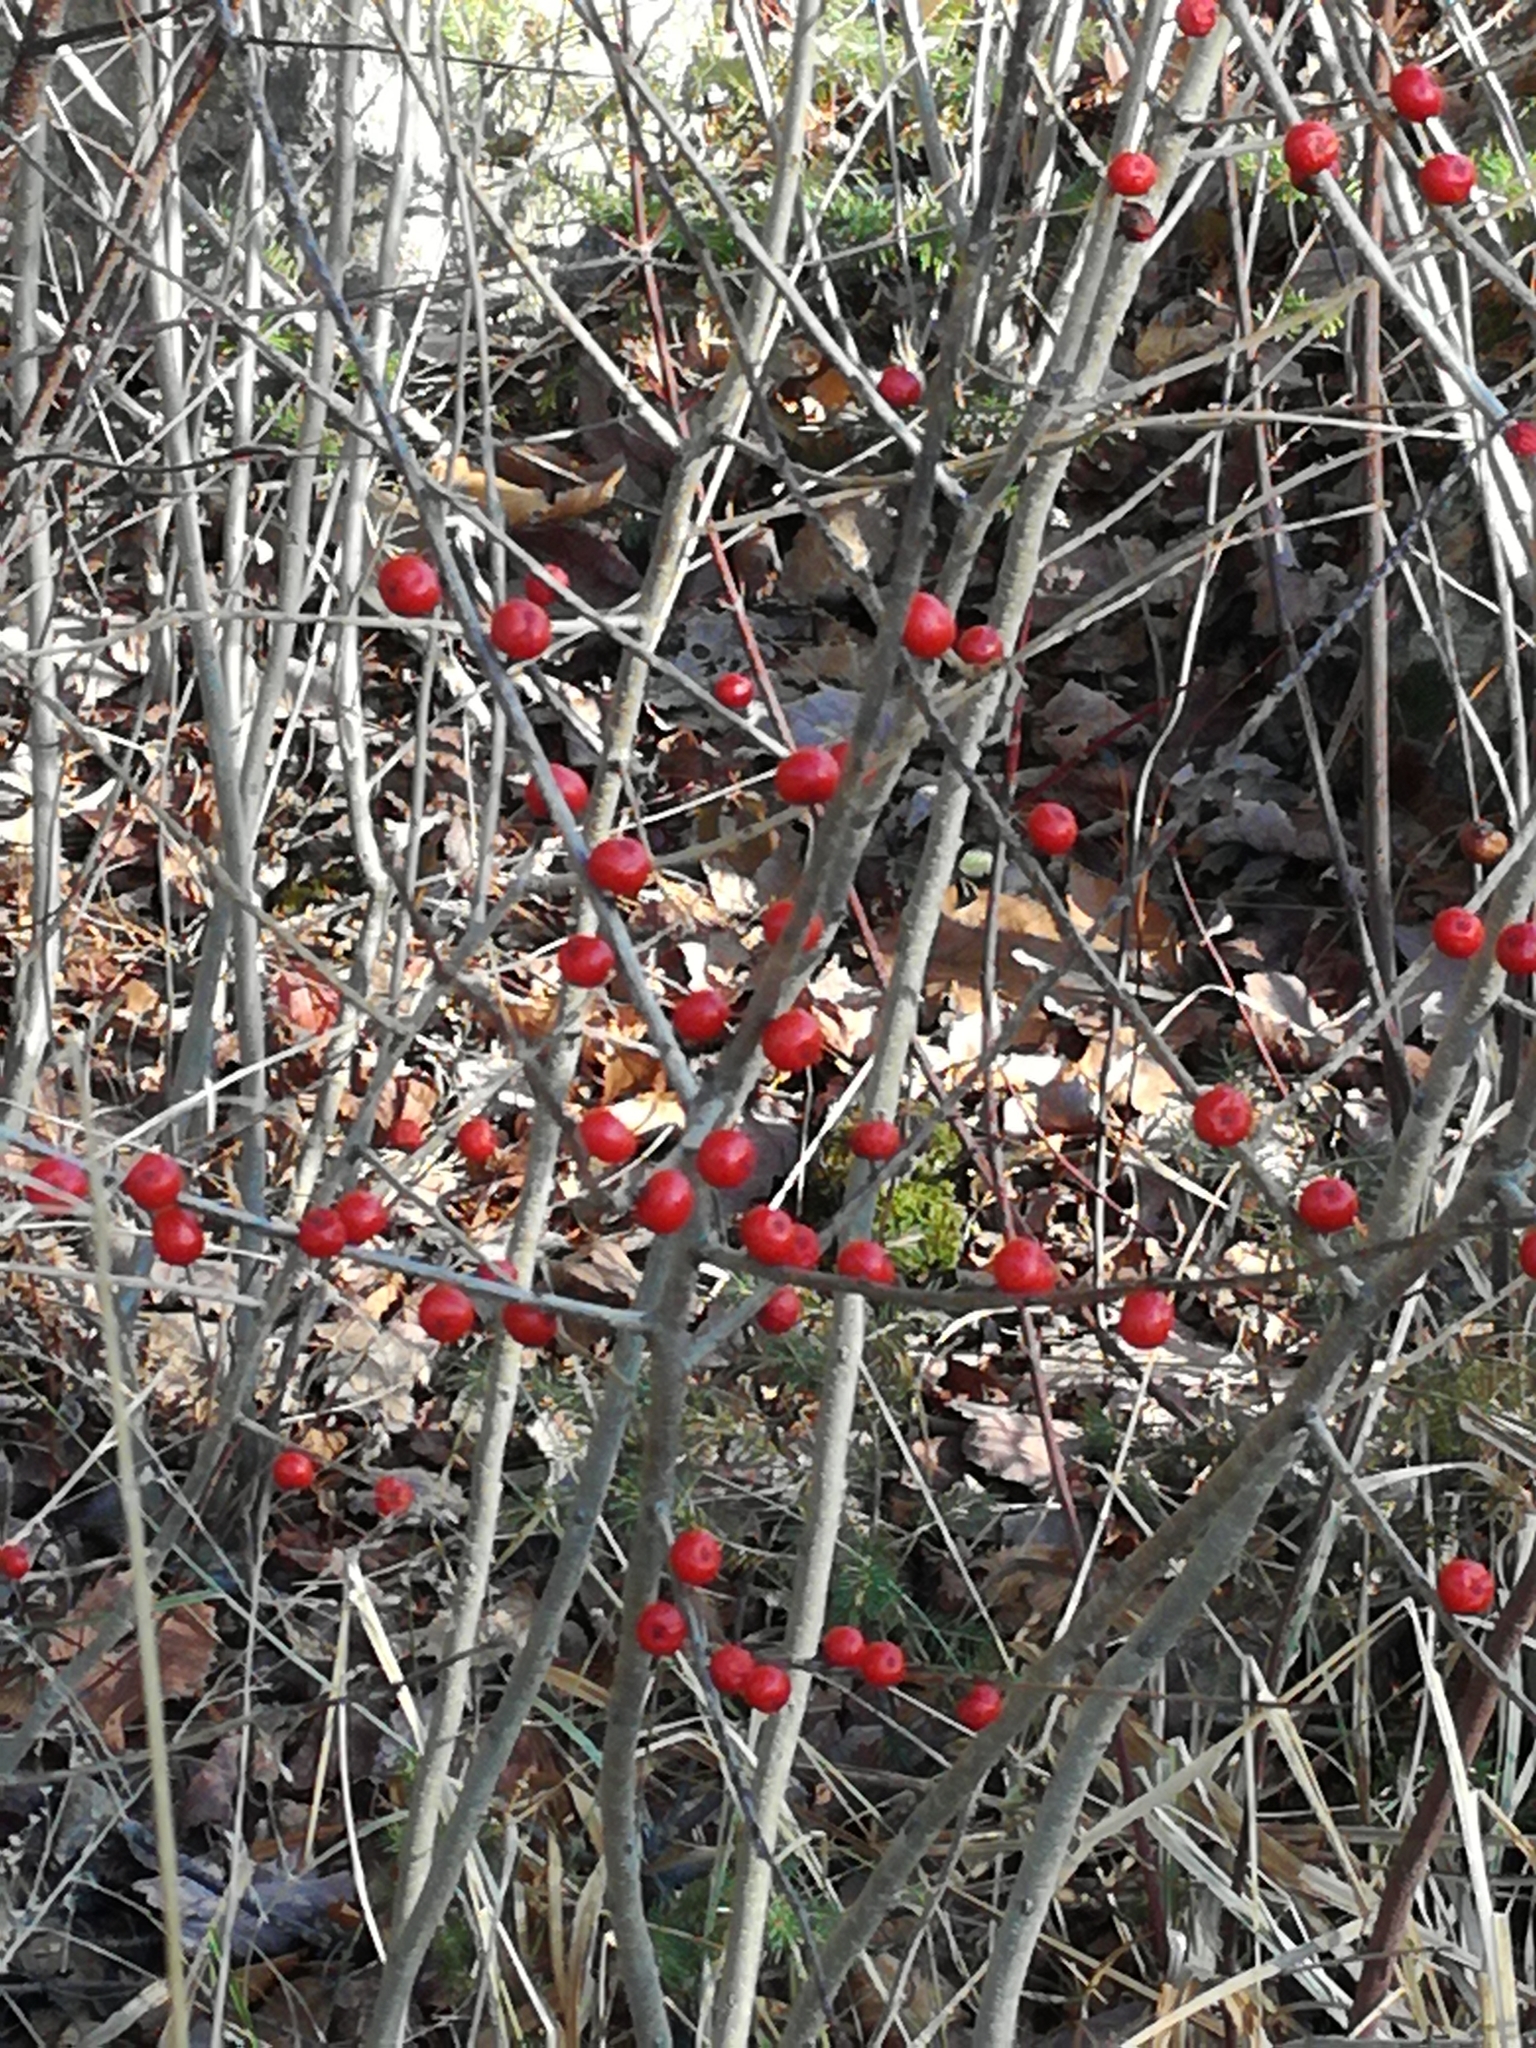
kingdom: Plantae
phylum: Tracheophyta
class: Magnoliopsida
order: Aquifoliales
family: Aquifoliaceae
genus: Ilex
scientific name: Ilex verticillata
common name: Virginia winterberry
